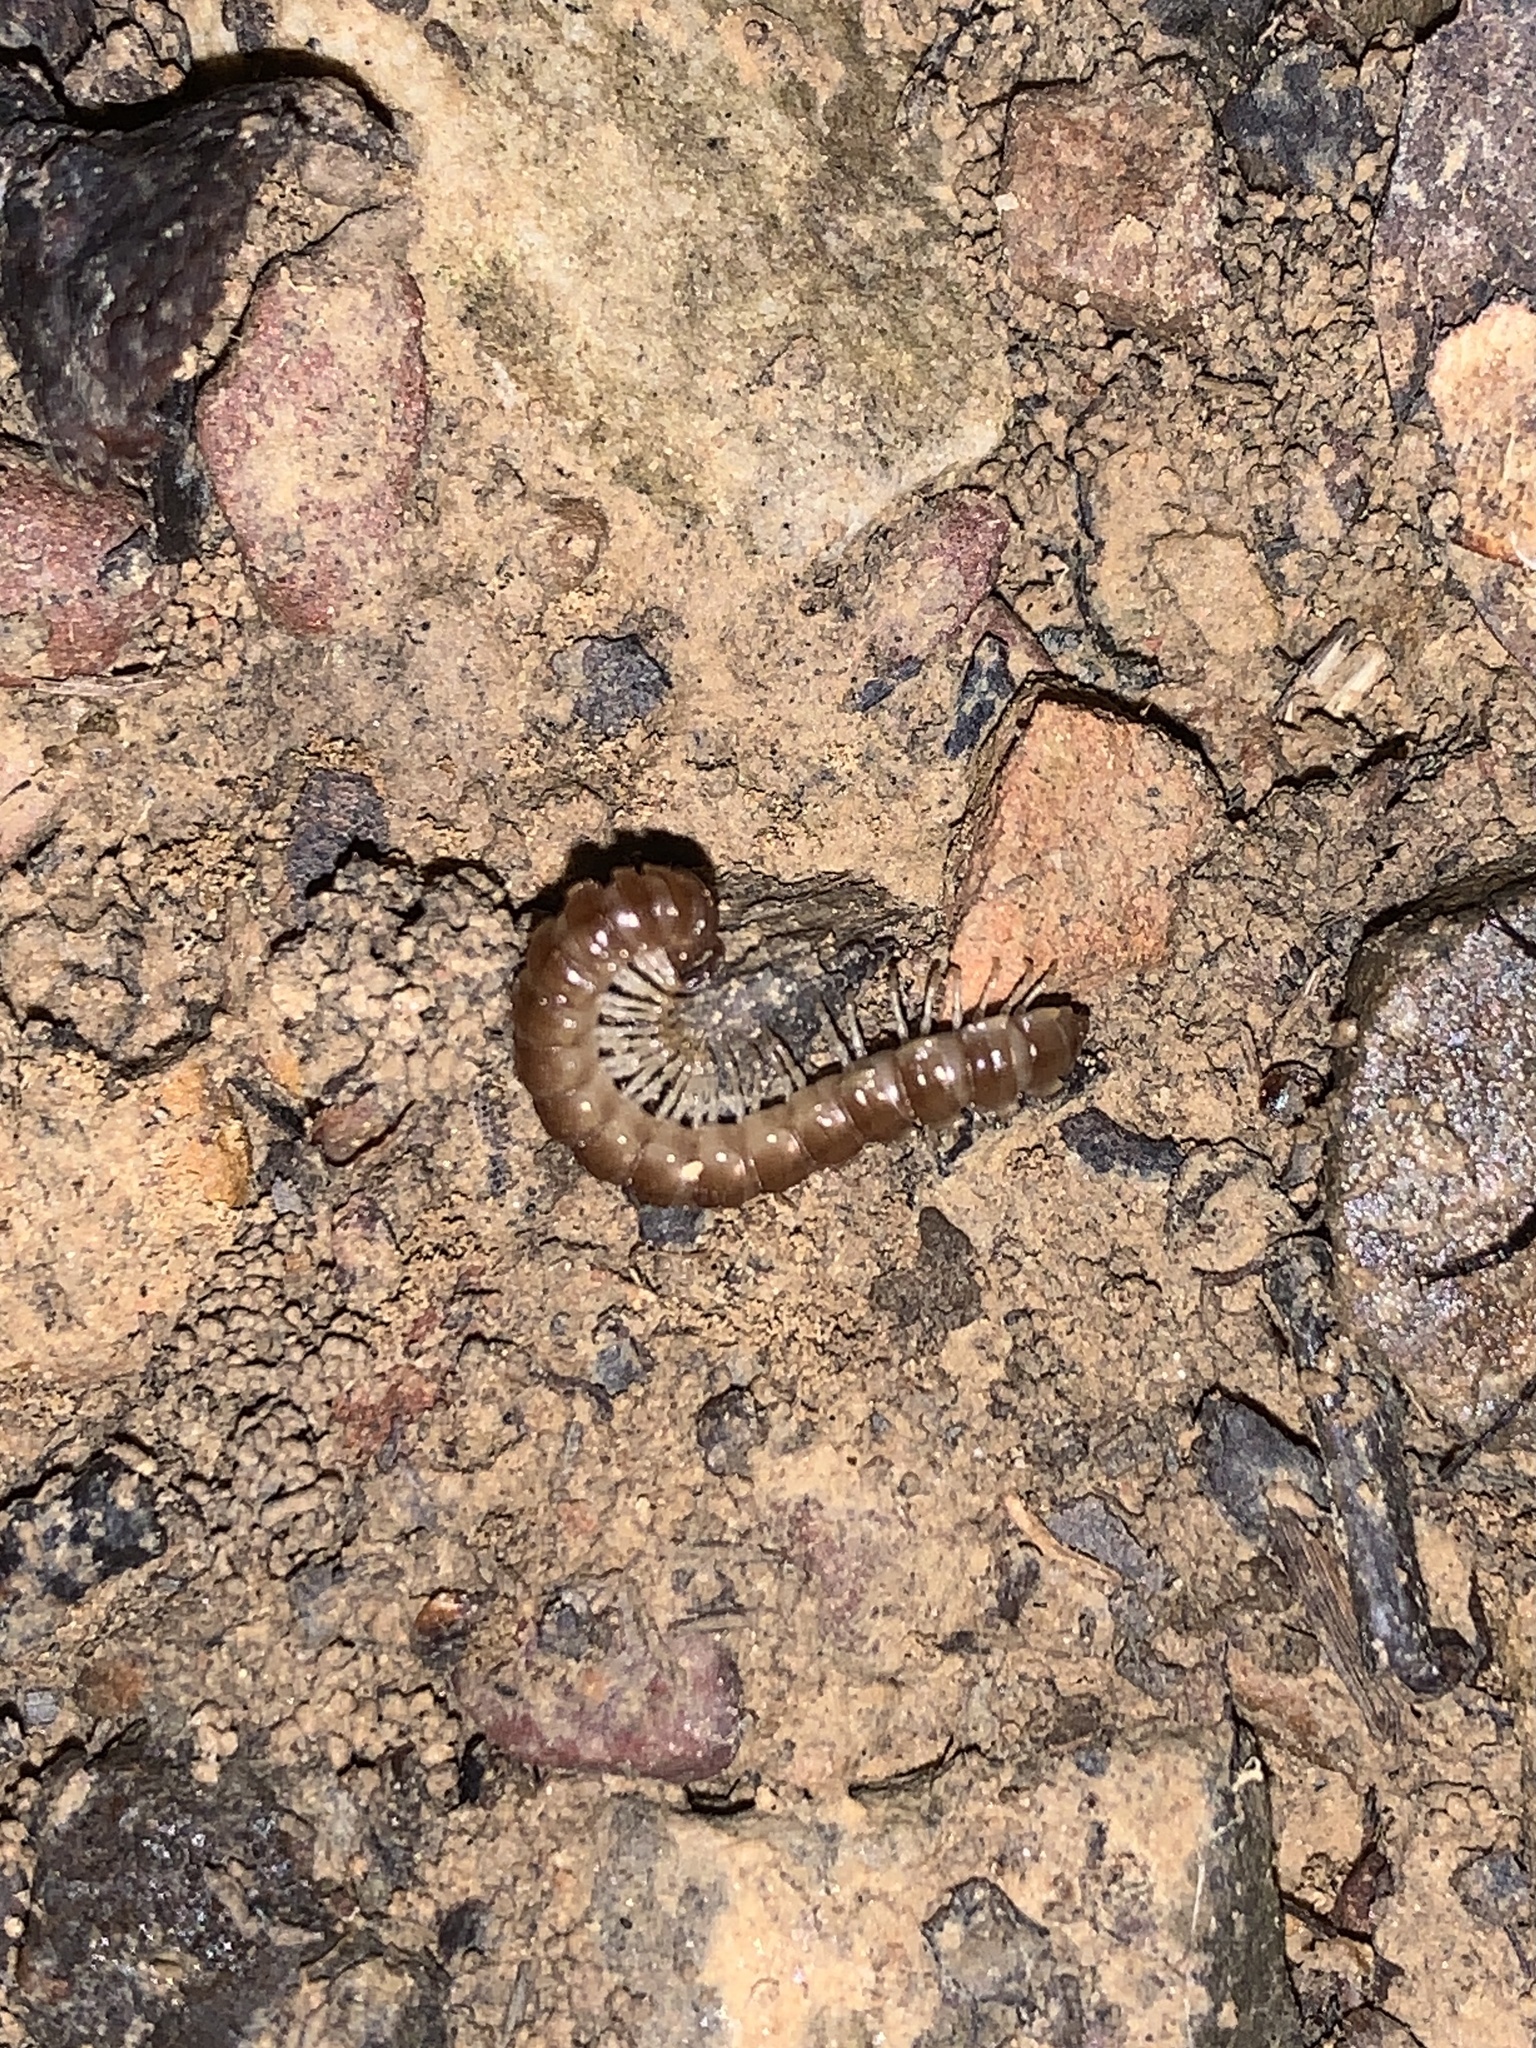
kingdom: Animalia
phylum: Arthropoda
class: Diplopoda
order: Polydesmida
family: Paradoxosomatidae
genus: Oxidus
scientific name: Oxidus gracilis
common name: Greenhouse millipede
